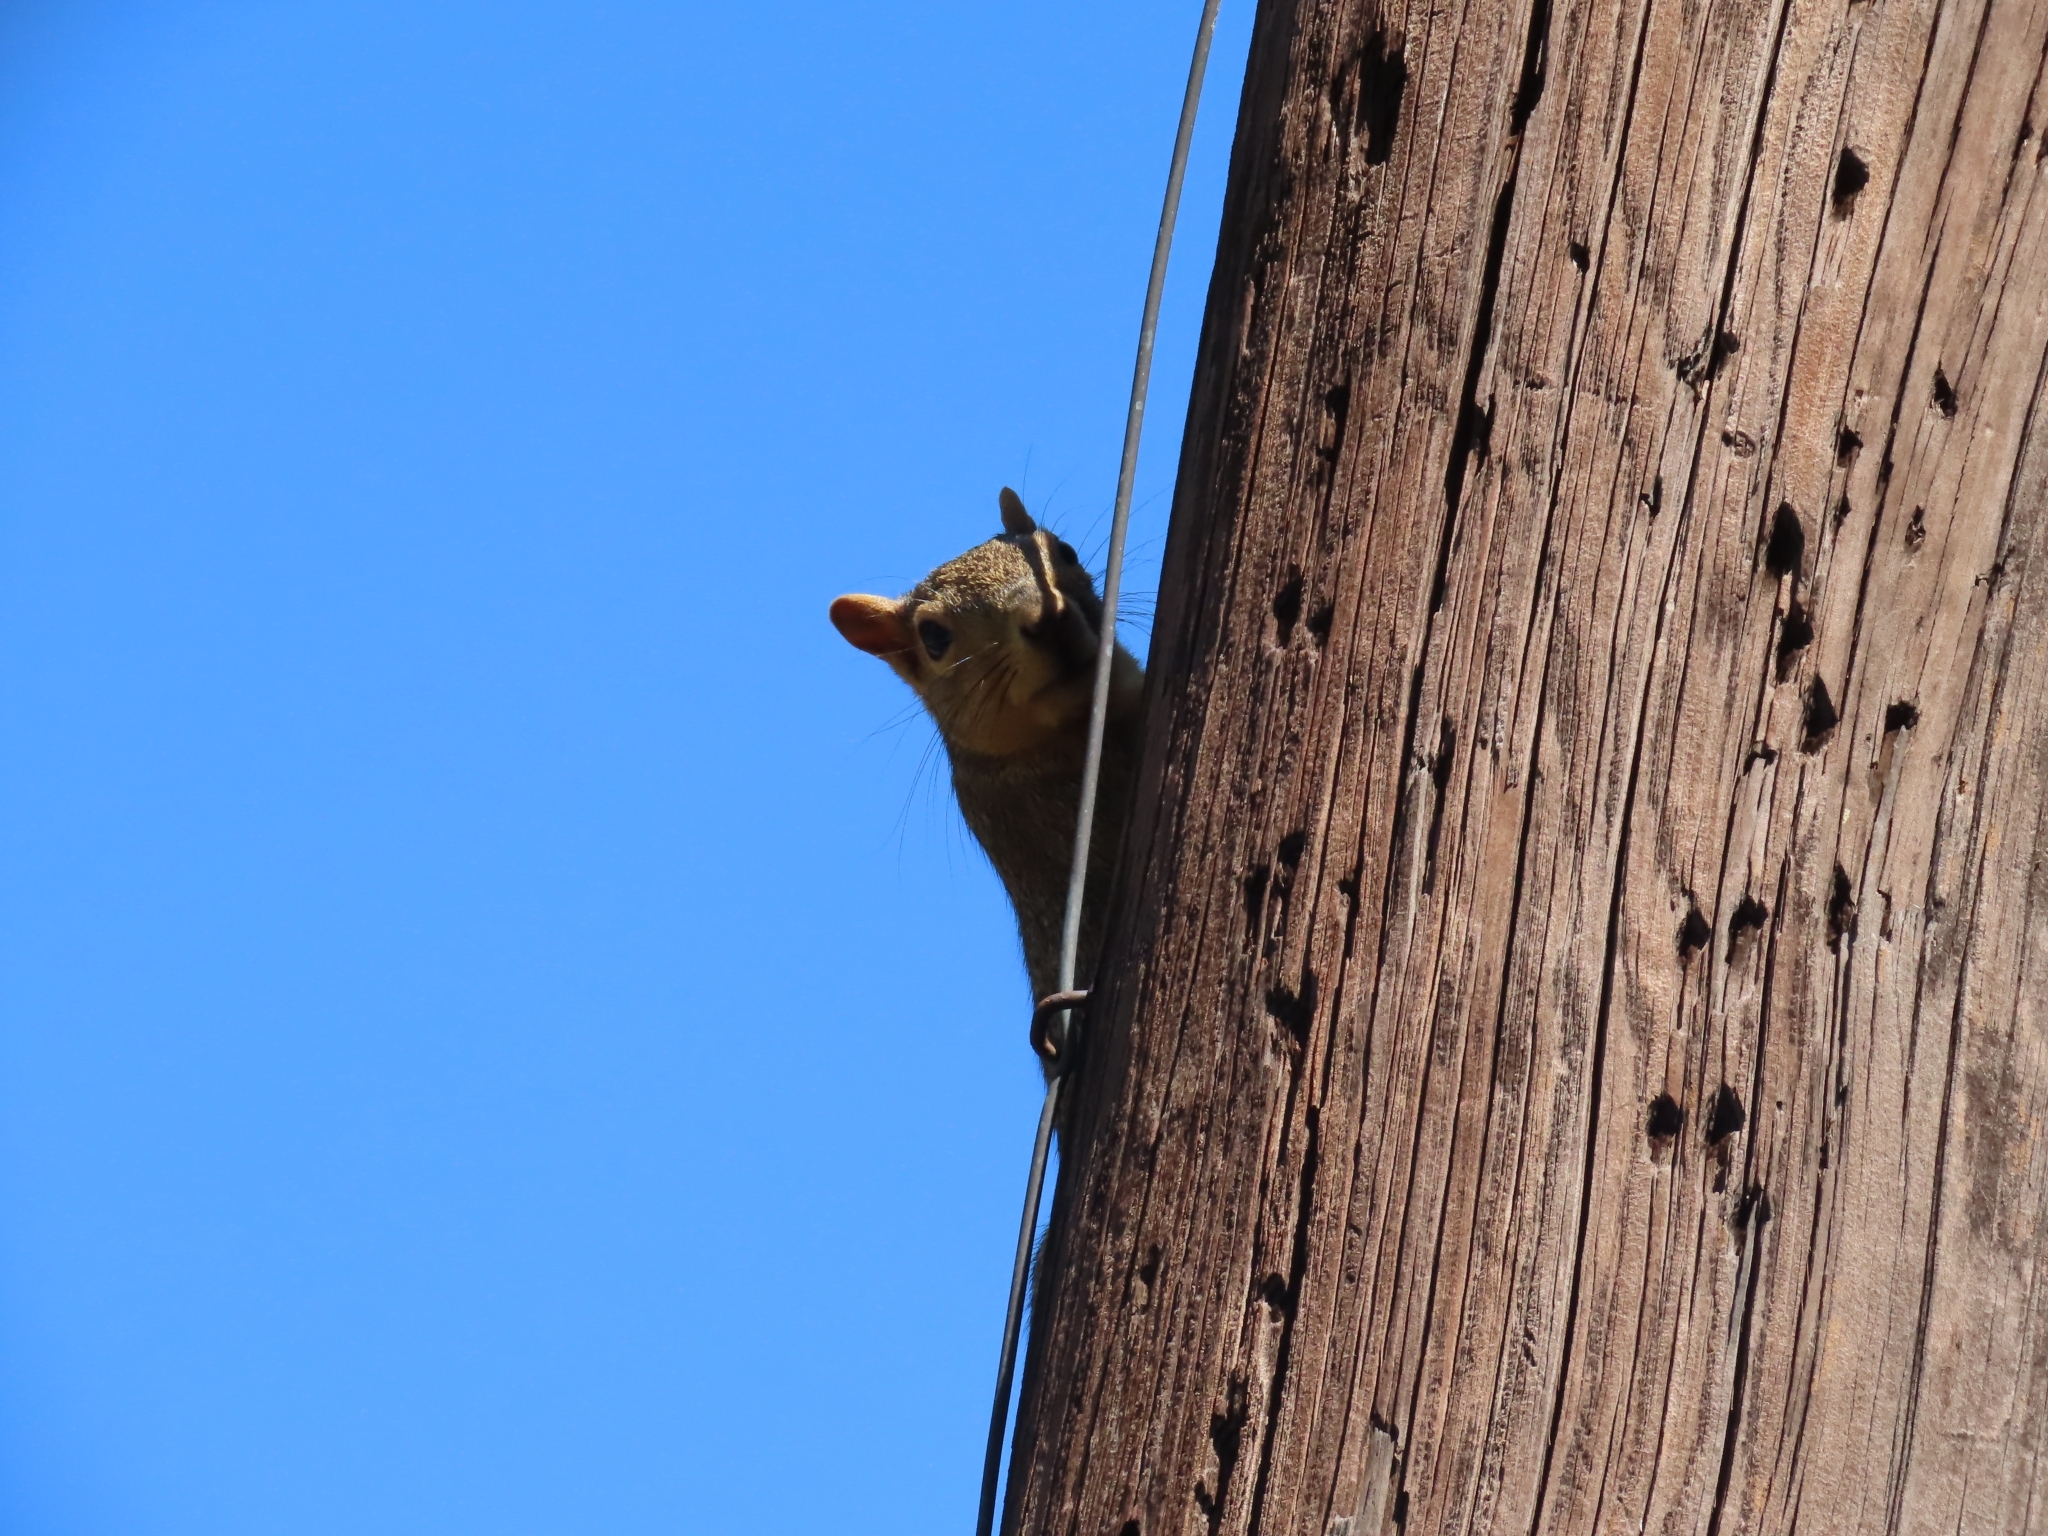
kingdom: Animalia
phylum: Chordata
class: Mammalia
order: Rodentia
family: Sciuridae
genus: Sciurus
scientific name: Sciurus niger
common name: Fox squirrel
